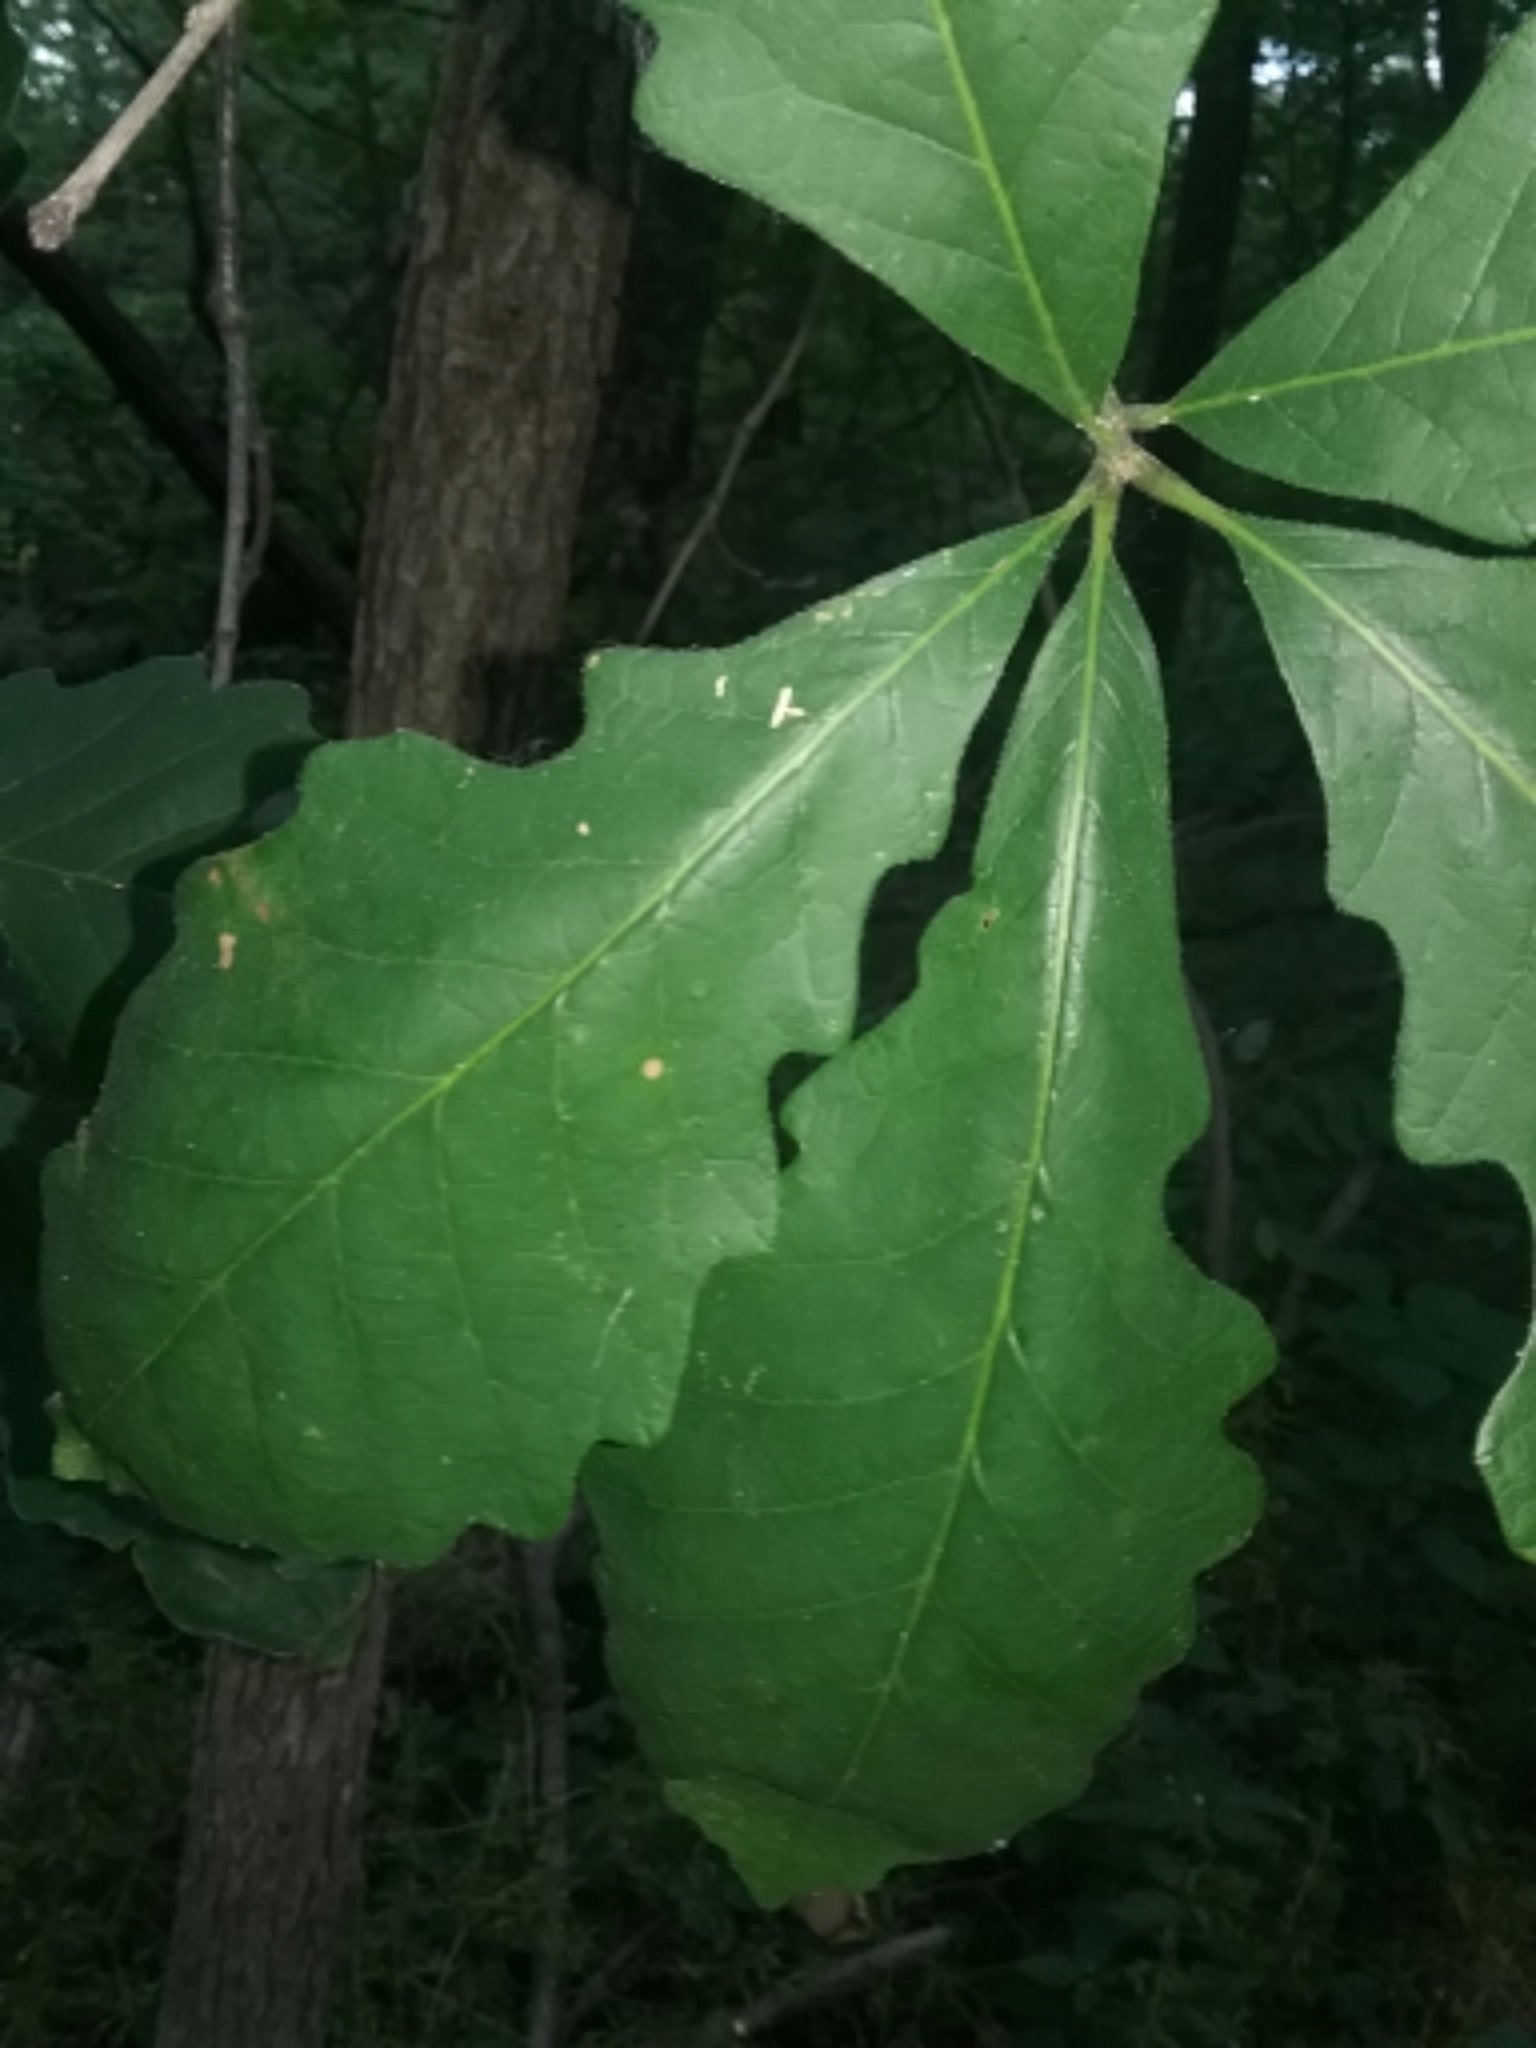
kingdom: Plantae
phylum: Tracheophyta
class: Magnoliopsida
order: Fagales
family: Fagaceae
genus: Quercus
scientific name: Quercus macrocarpa
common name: Bur oak
